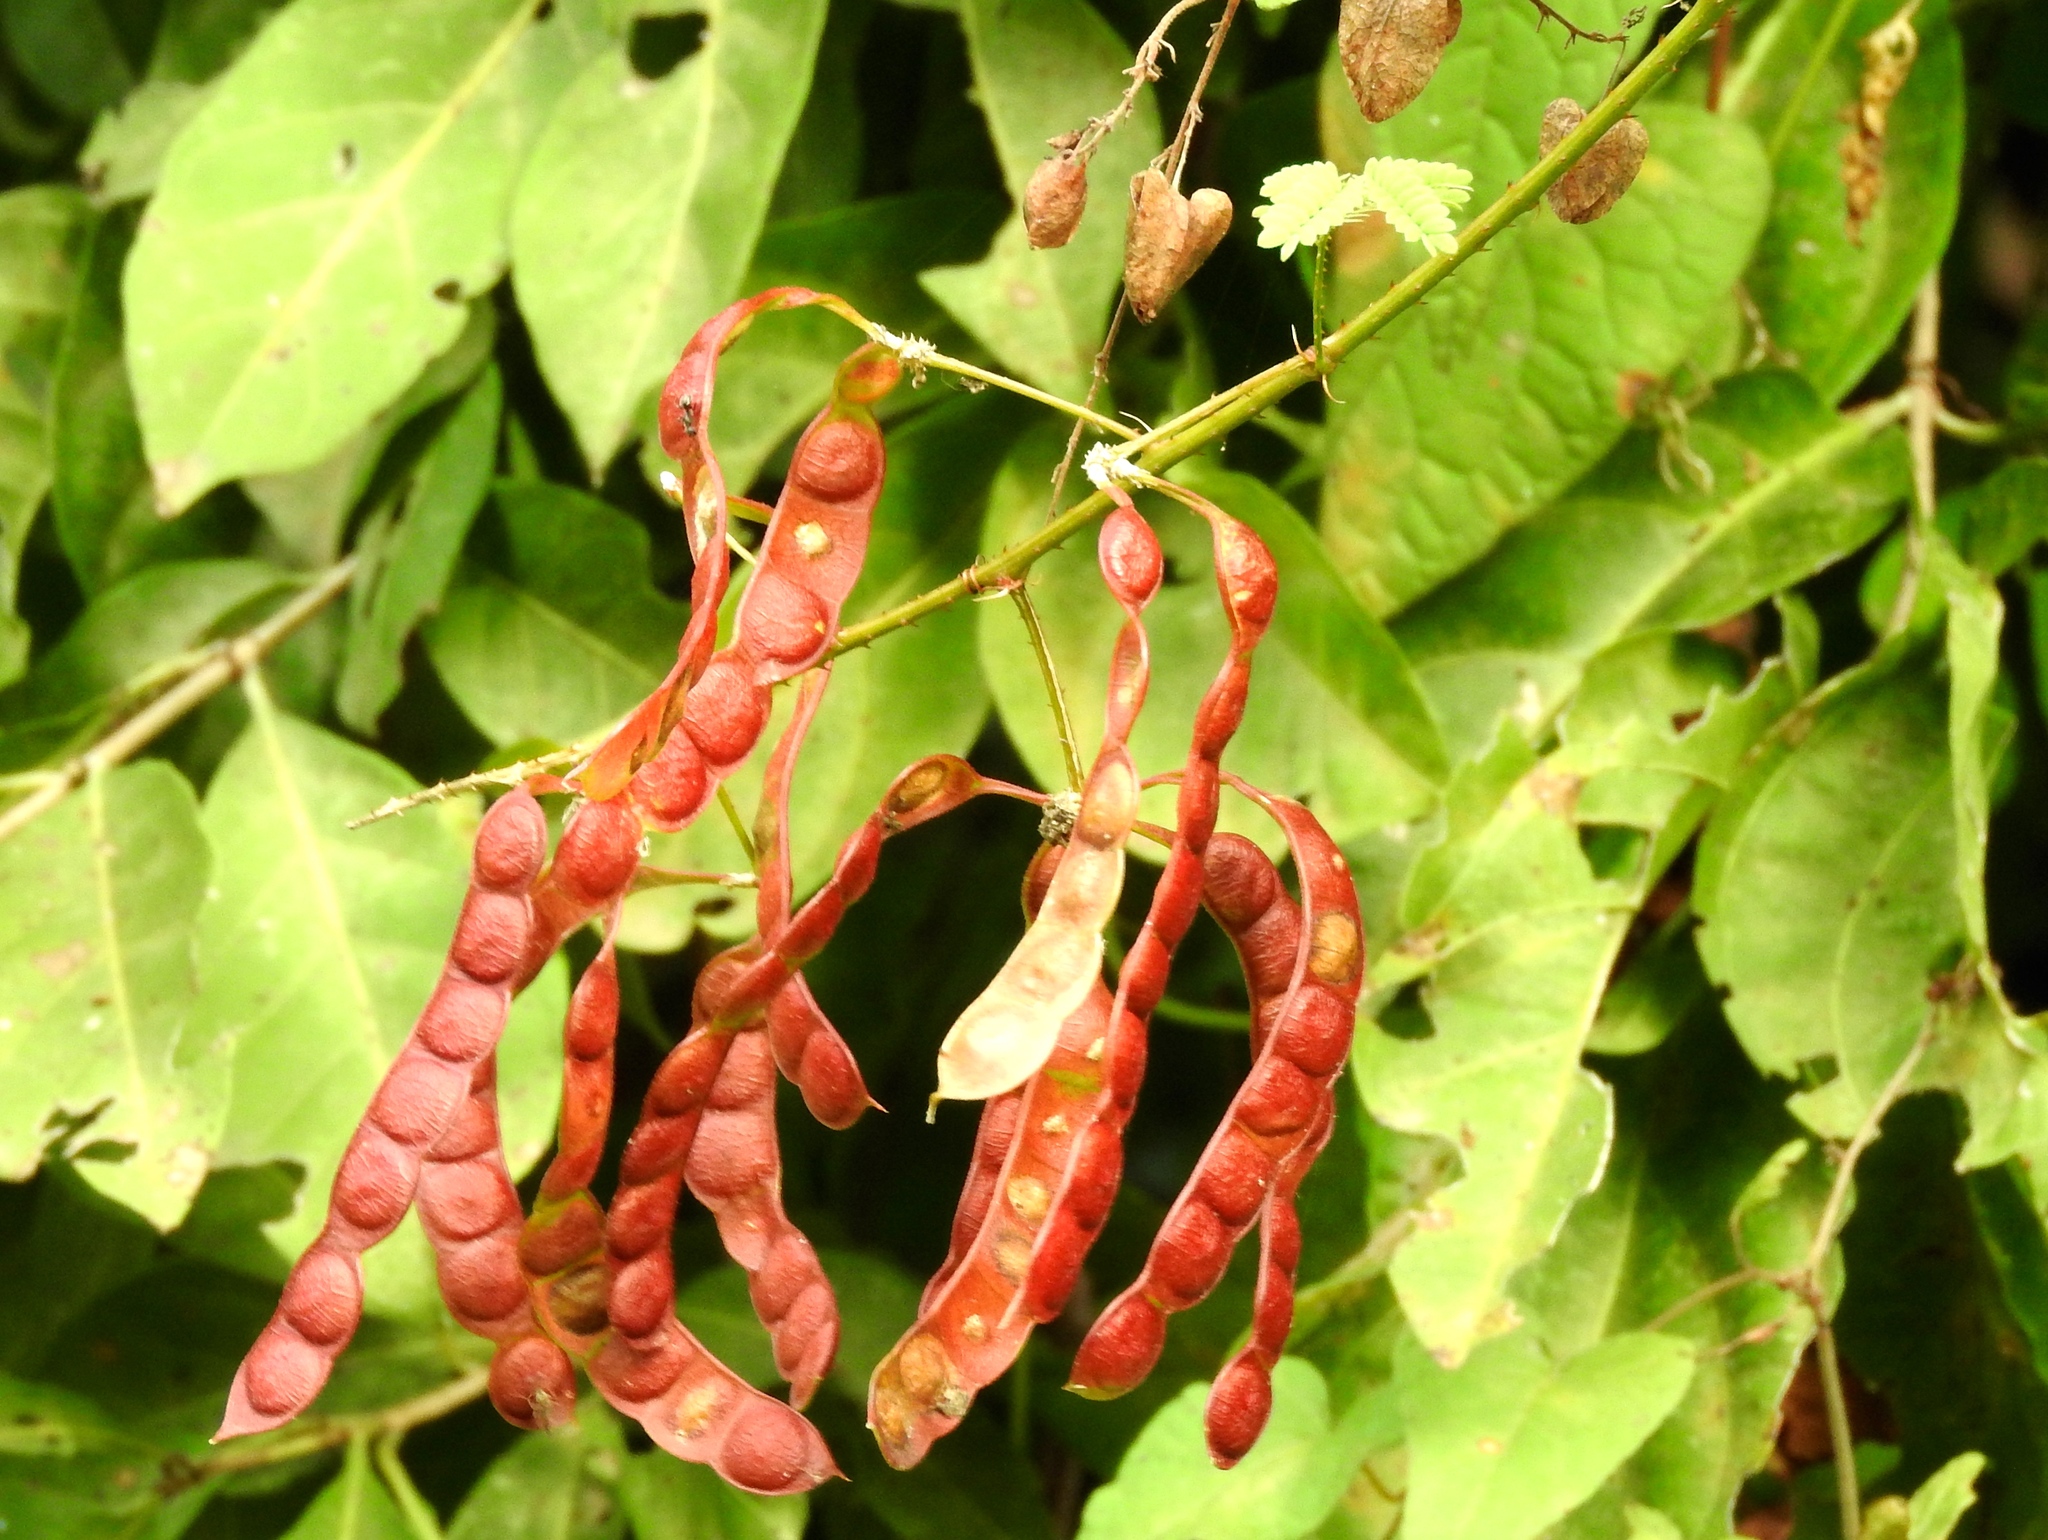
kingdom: Plantae
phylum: Tracheophyta
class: Magnoliopsida
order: Fabales
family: Fabaceae
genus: Mimosa
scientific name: Mimosa
